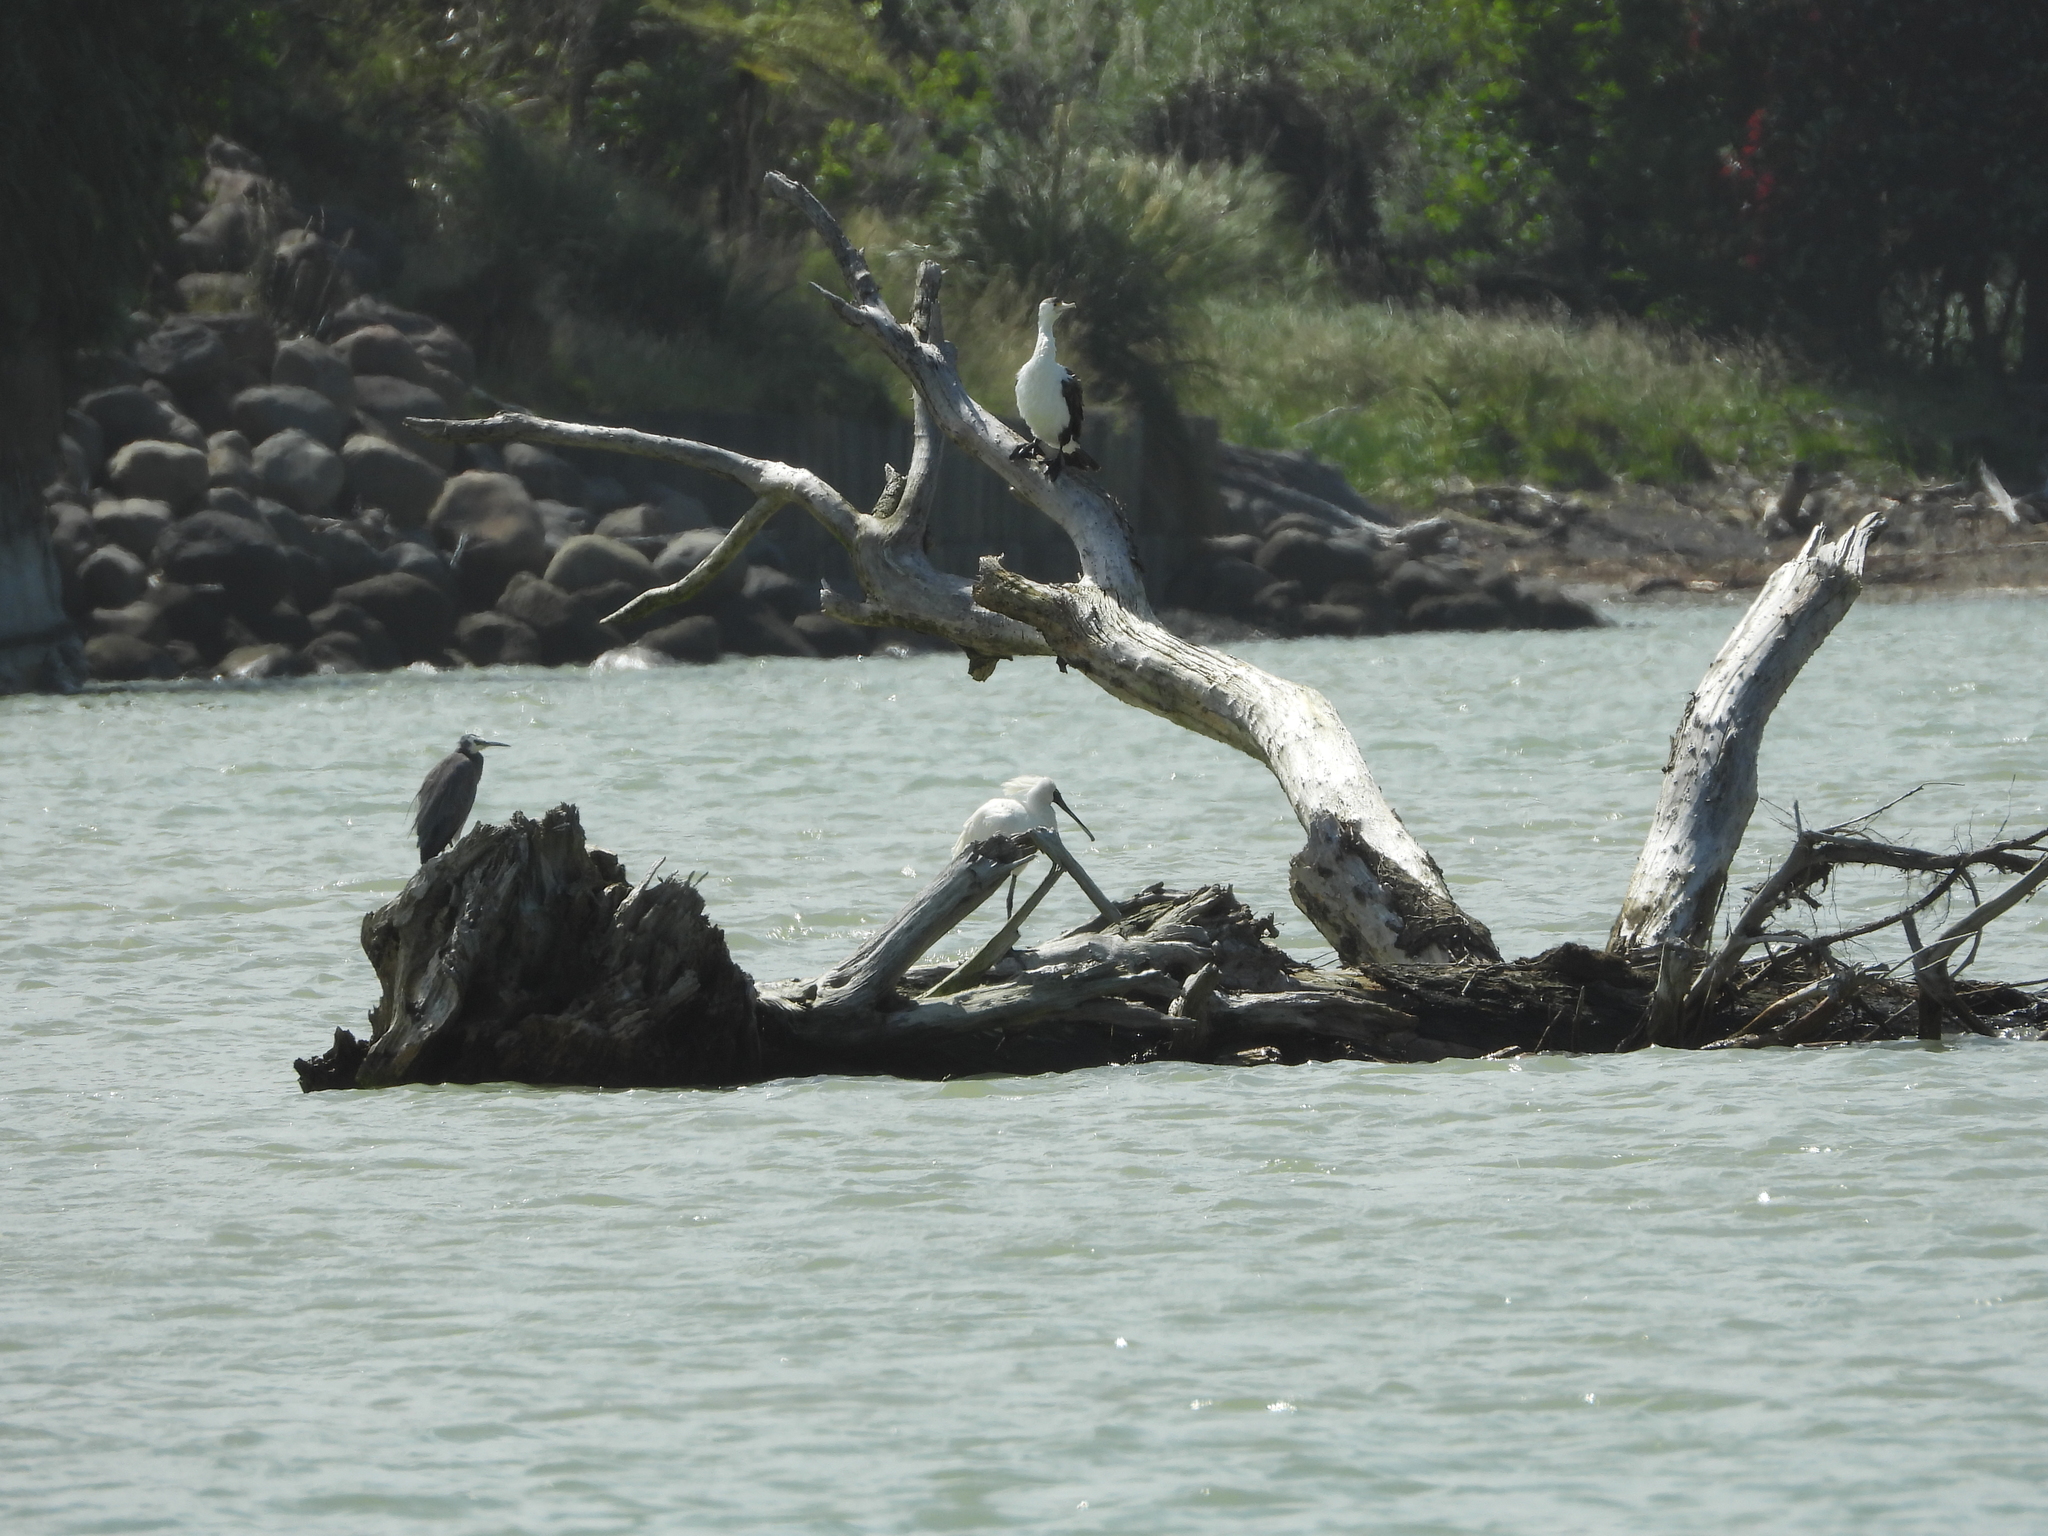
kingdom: Animalia
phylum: Chordata
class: Aves
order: Pelecaniformes
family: Threskiornithidae
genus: Platalea
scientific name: Platalea regia
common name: Royal spoonbill
